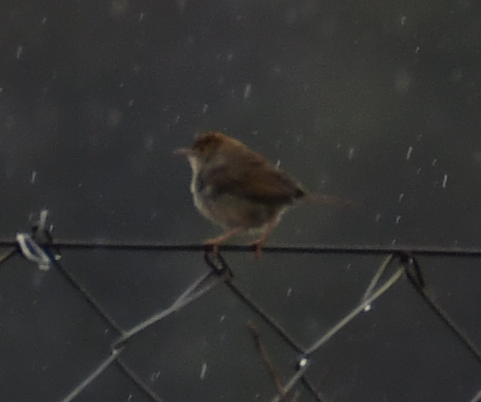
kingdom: Animalia
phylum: Chordata
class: Aves
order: Passeriformes
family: Cisticolidae
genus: Cisticola
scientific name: Cisticola fulvicapilla
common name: Neddicky
